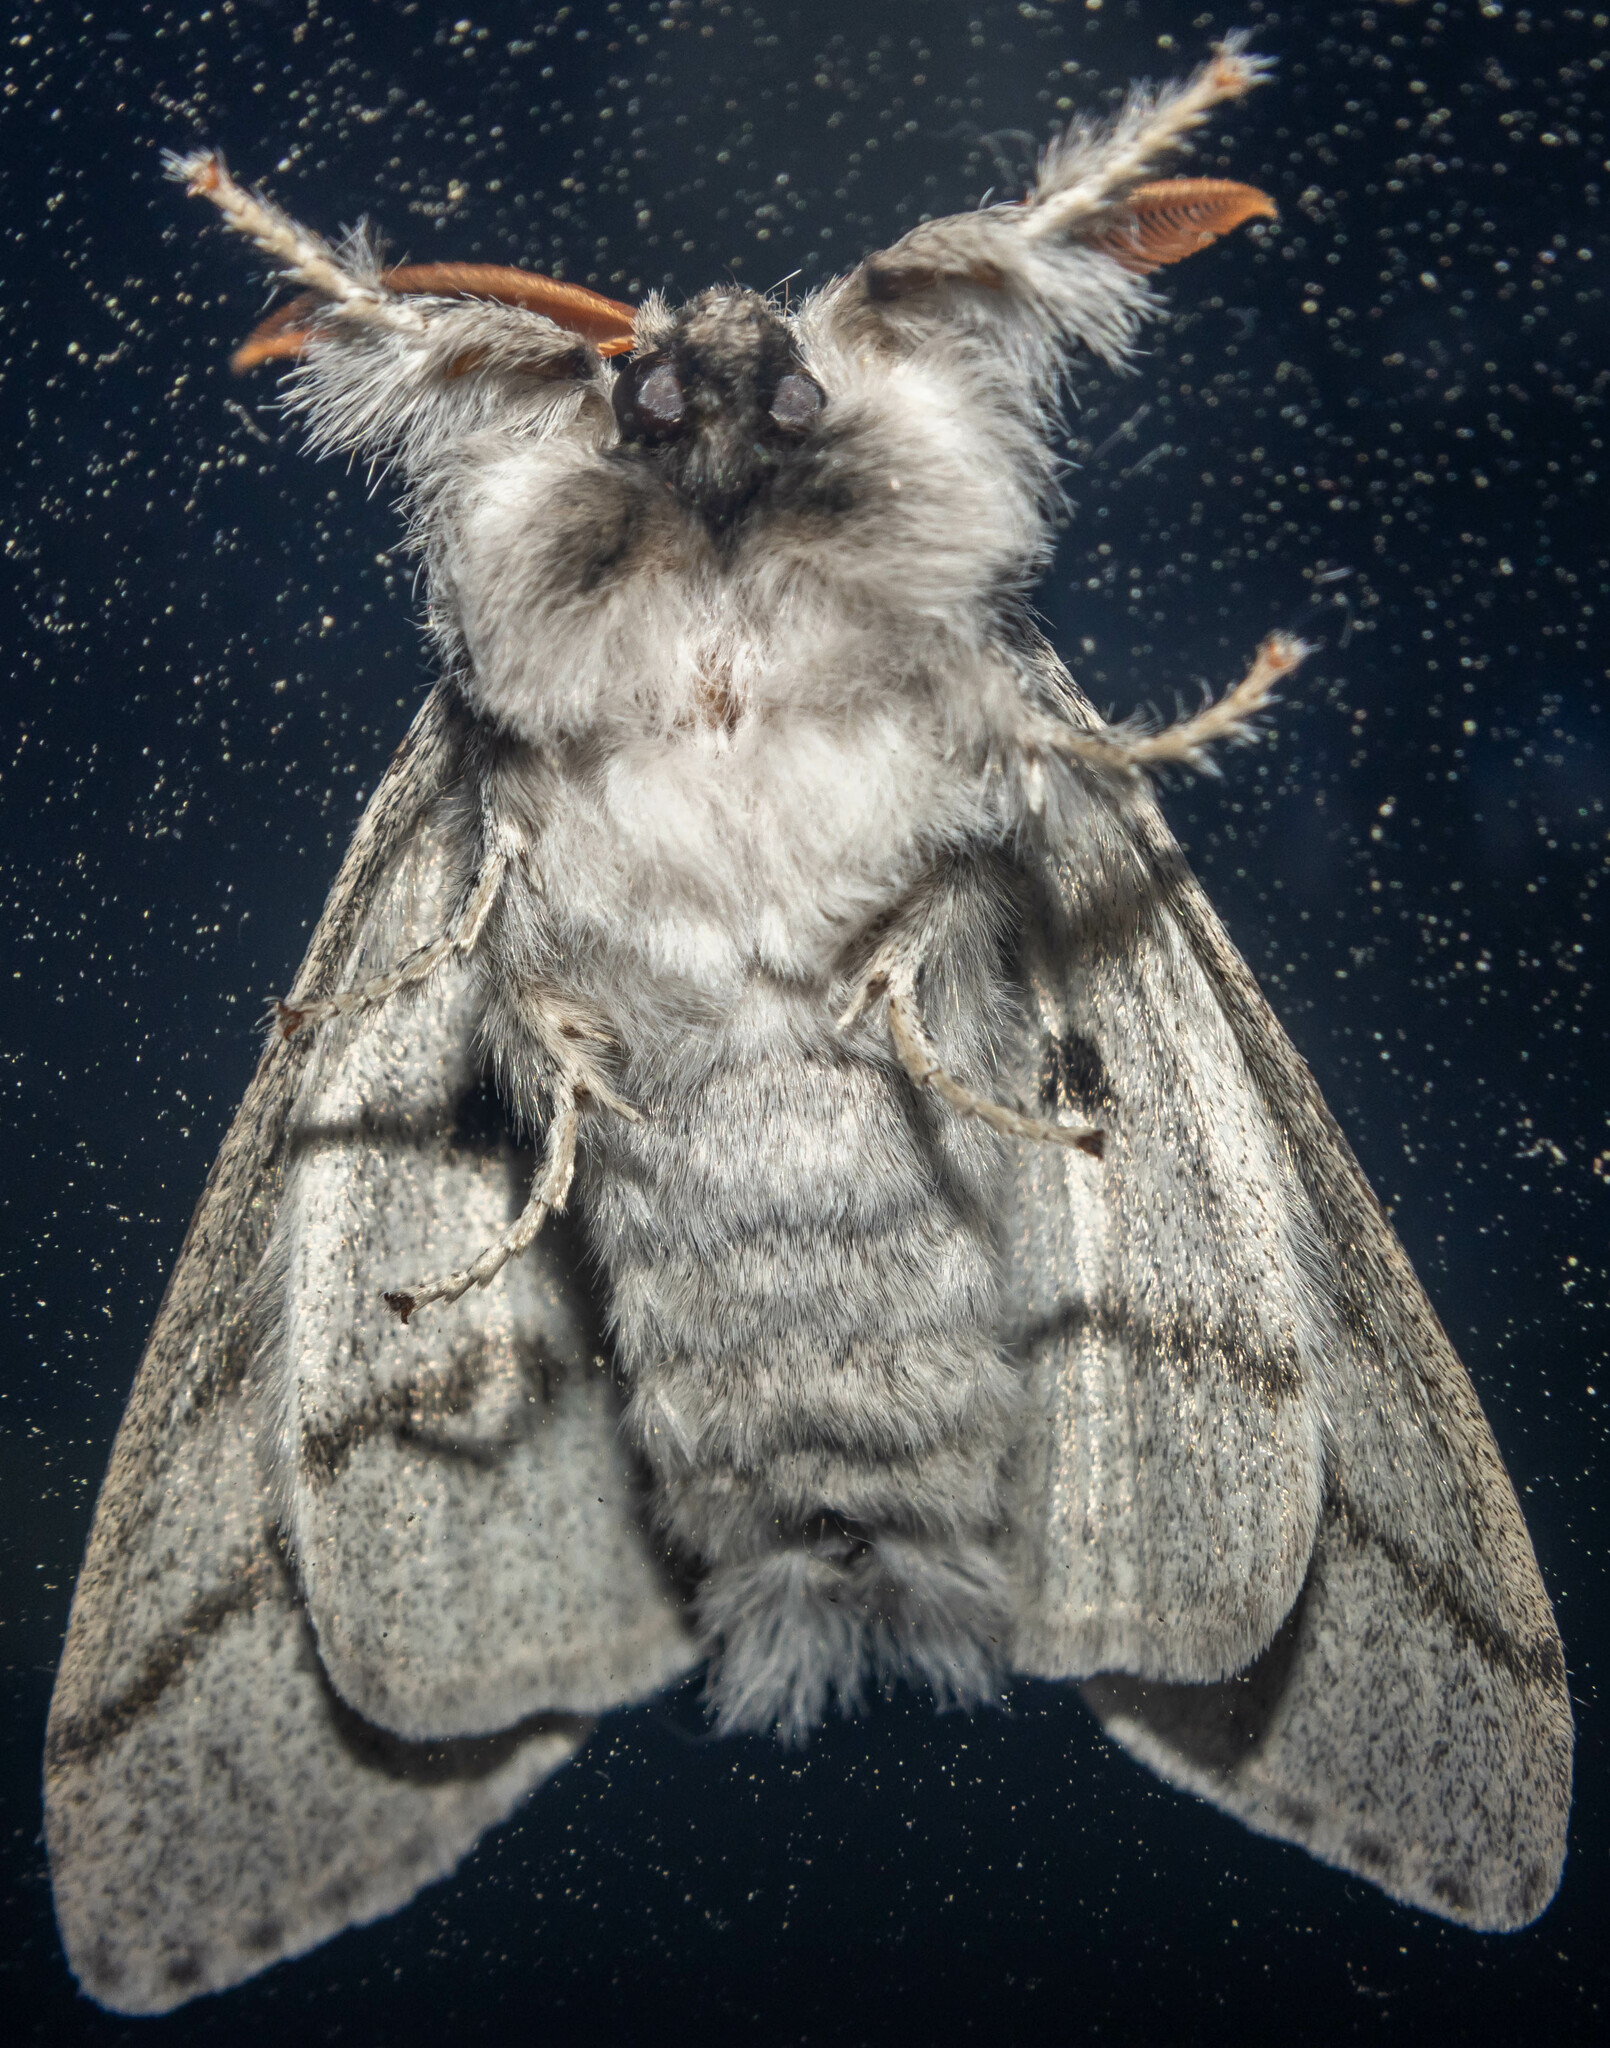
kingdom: Animalia
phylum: Arthropoda
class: Insecta
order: Lepidoptera
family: Erebidae
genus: Calliteara
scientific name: Calliteara pudibunda
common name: Pale tussock
